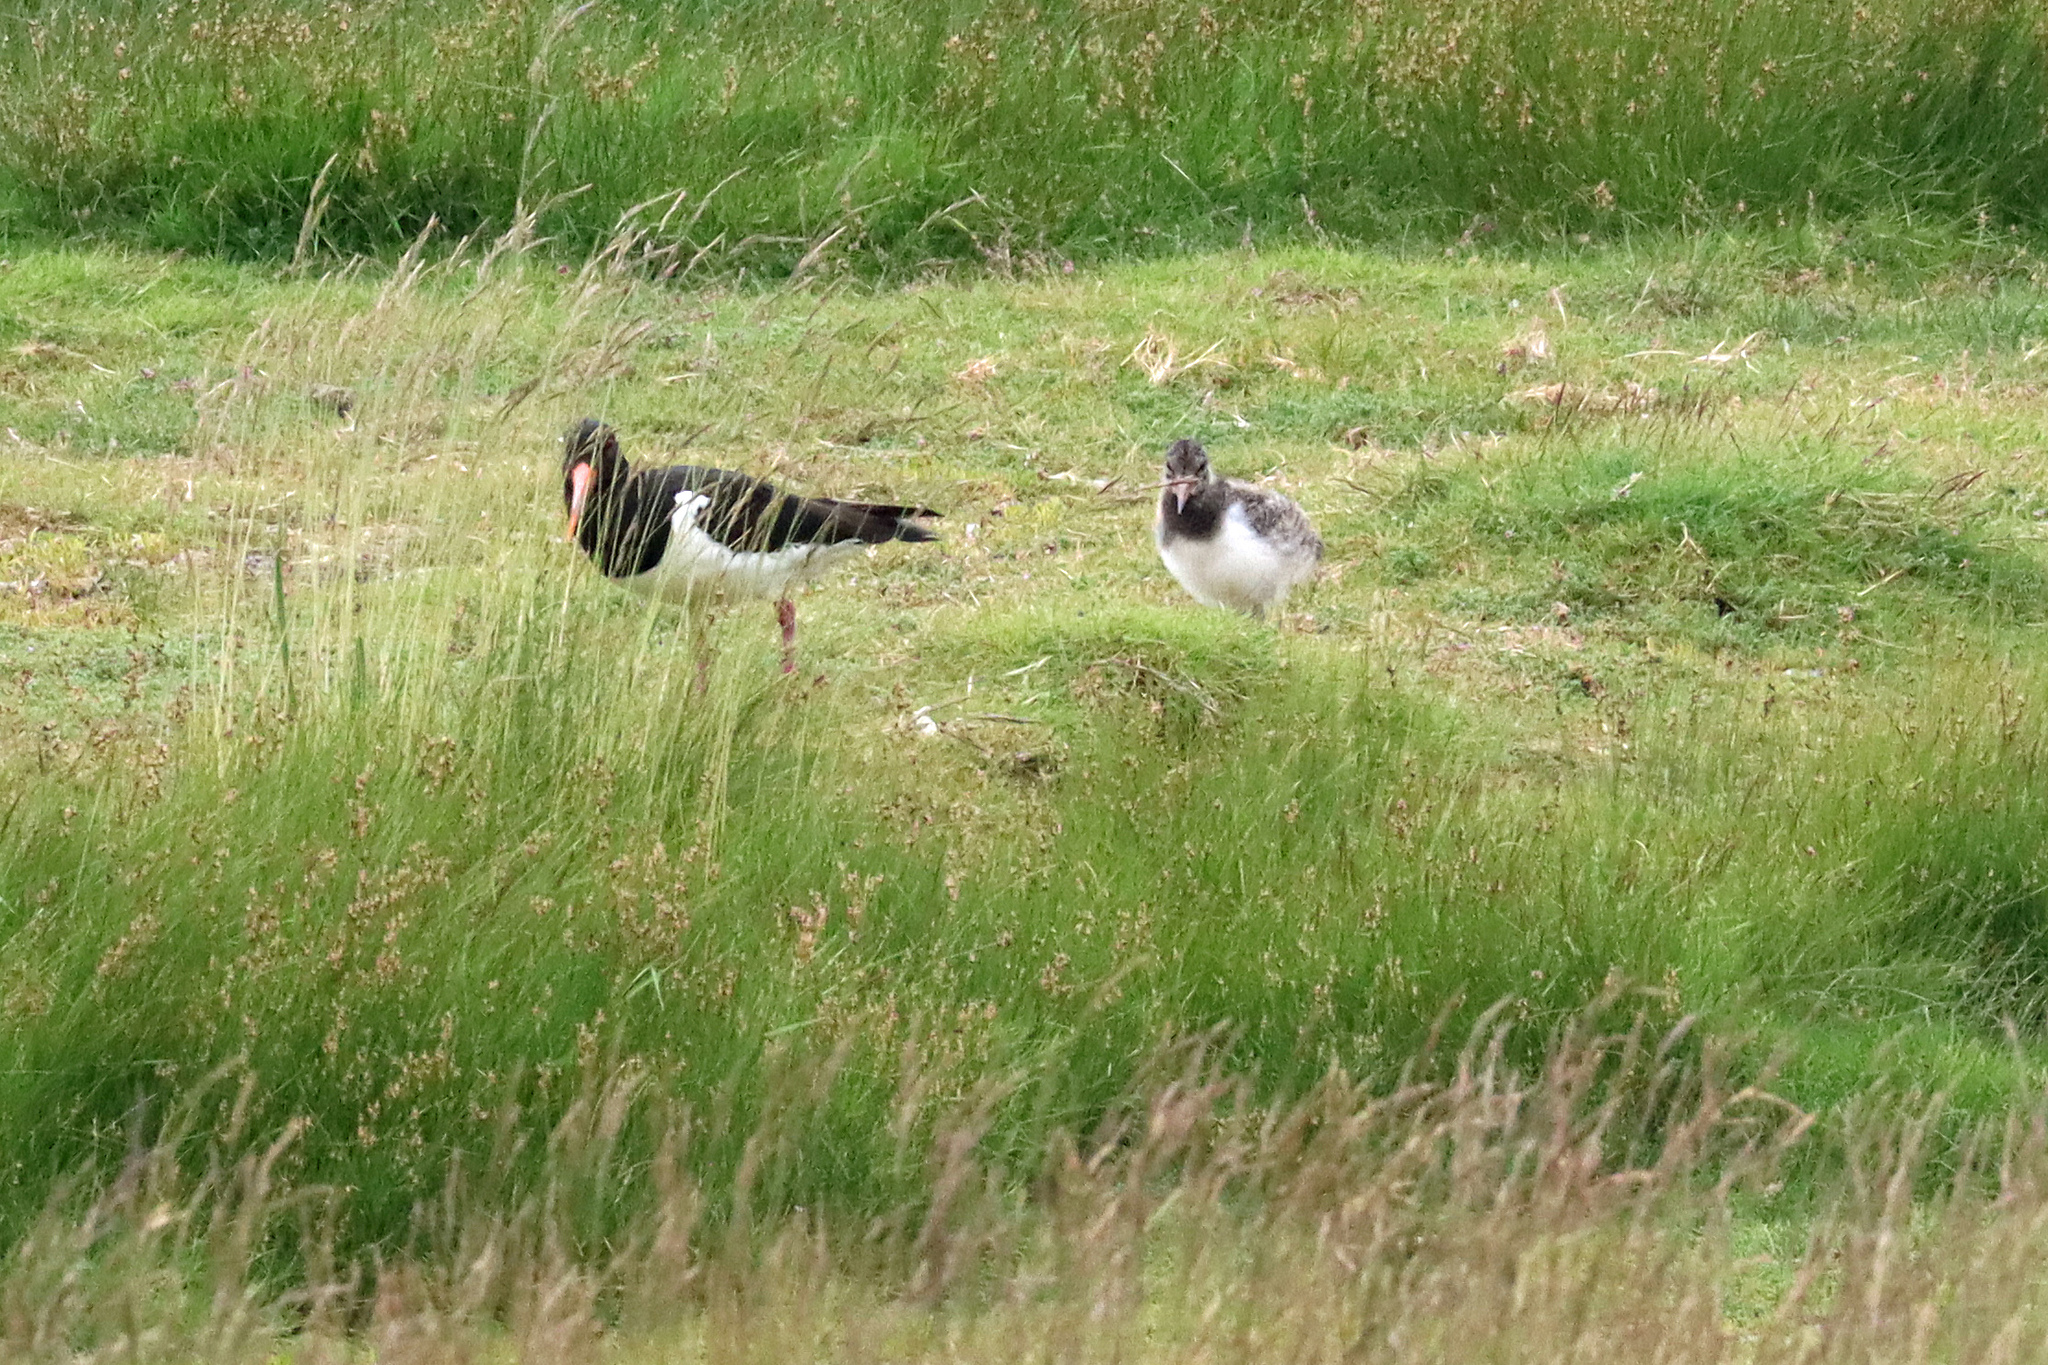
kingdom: Animalia
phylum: Chordata
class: Aves
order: Charadriiformes
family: Haematopodidae
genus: Haematopus
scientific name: Haematopus ostralegus
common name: Eurasian oystercatcher
